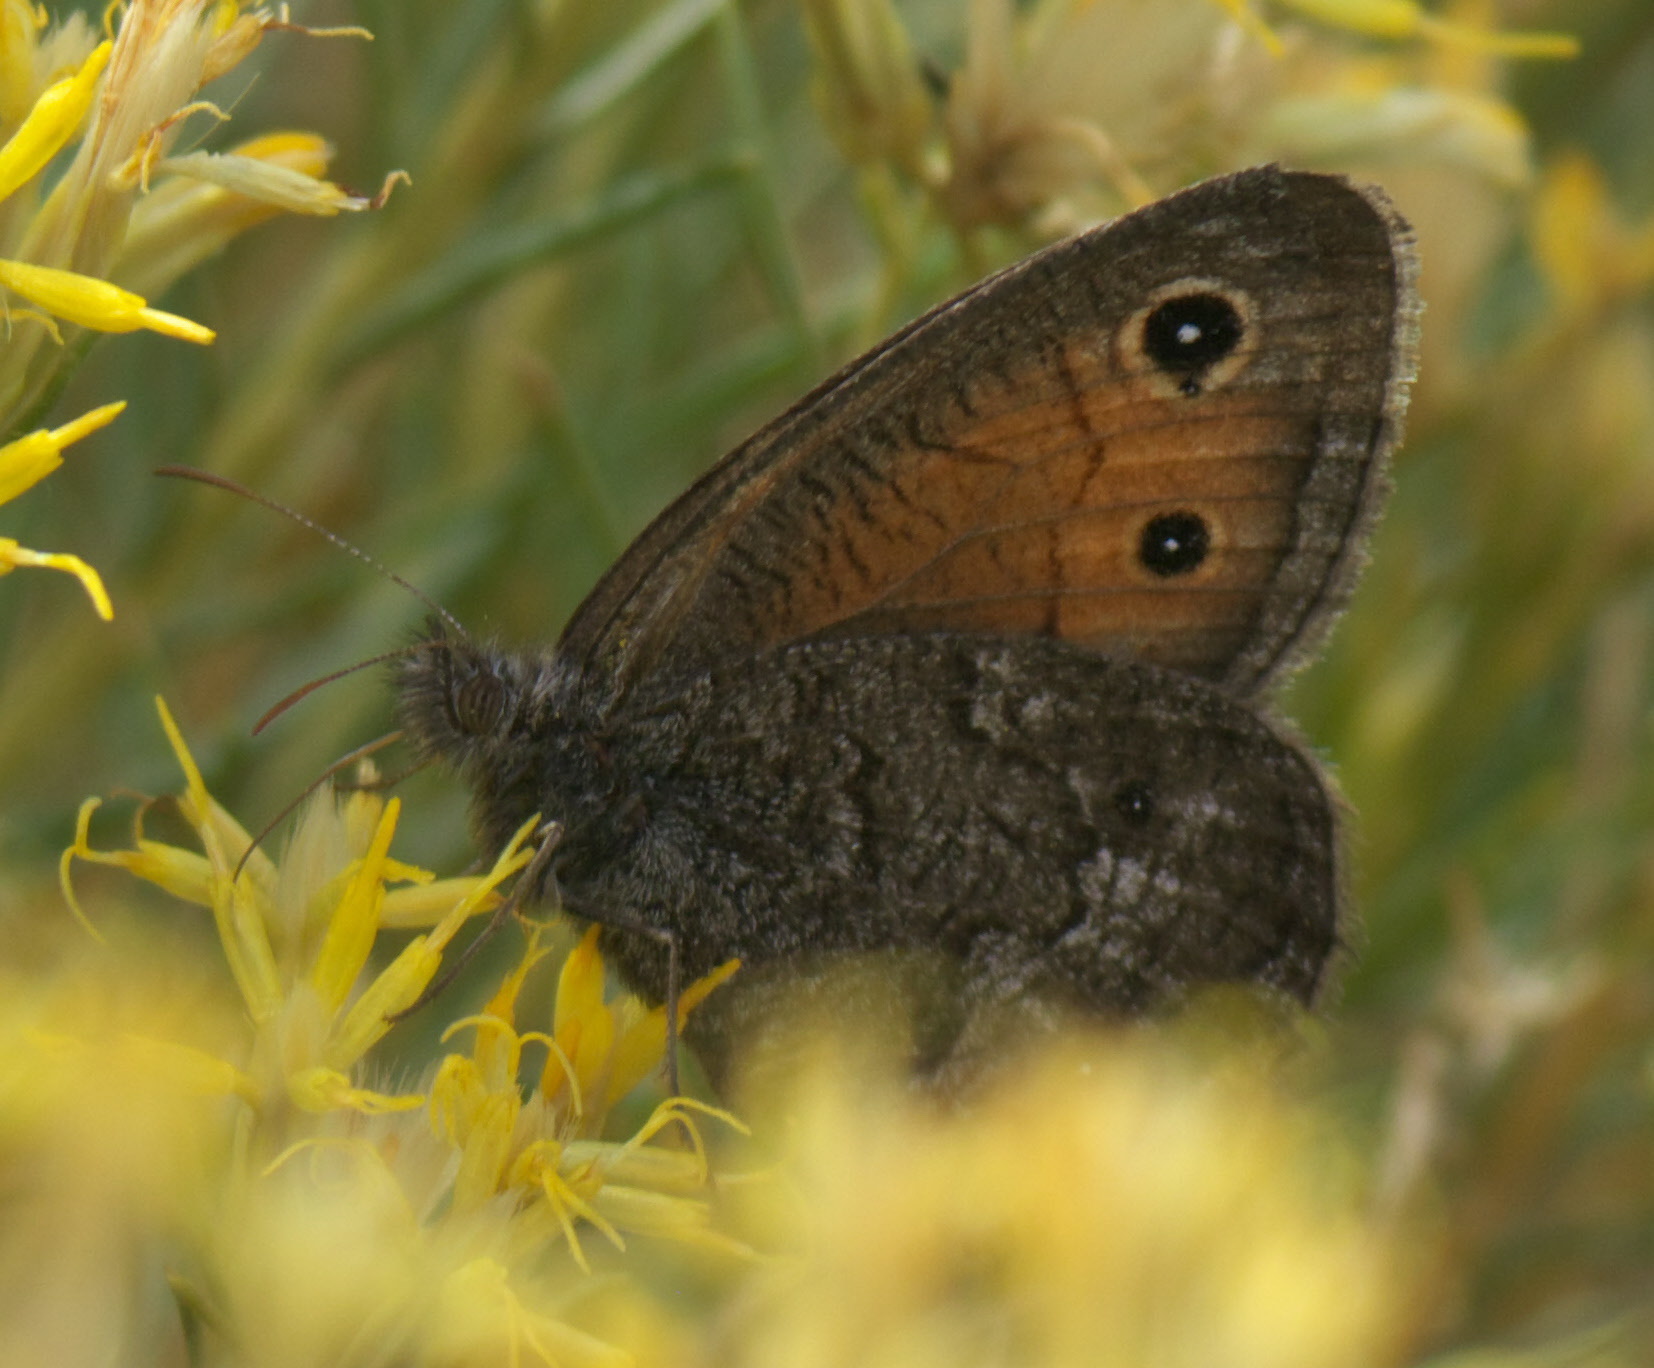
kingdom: Animalia
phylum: Arthropoda
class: Insecta
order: Lepidoptera
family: Nymphalidae
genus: Cercyonis
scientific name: Cercyonis meadi
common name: Mead's wood-nymph
